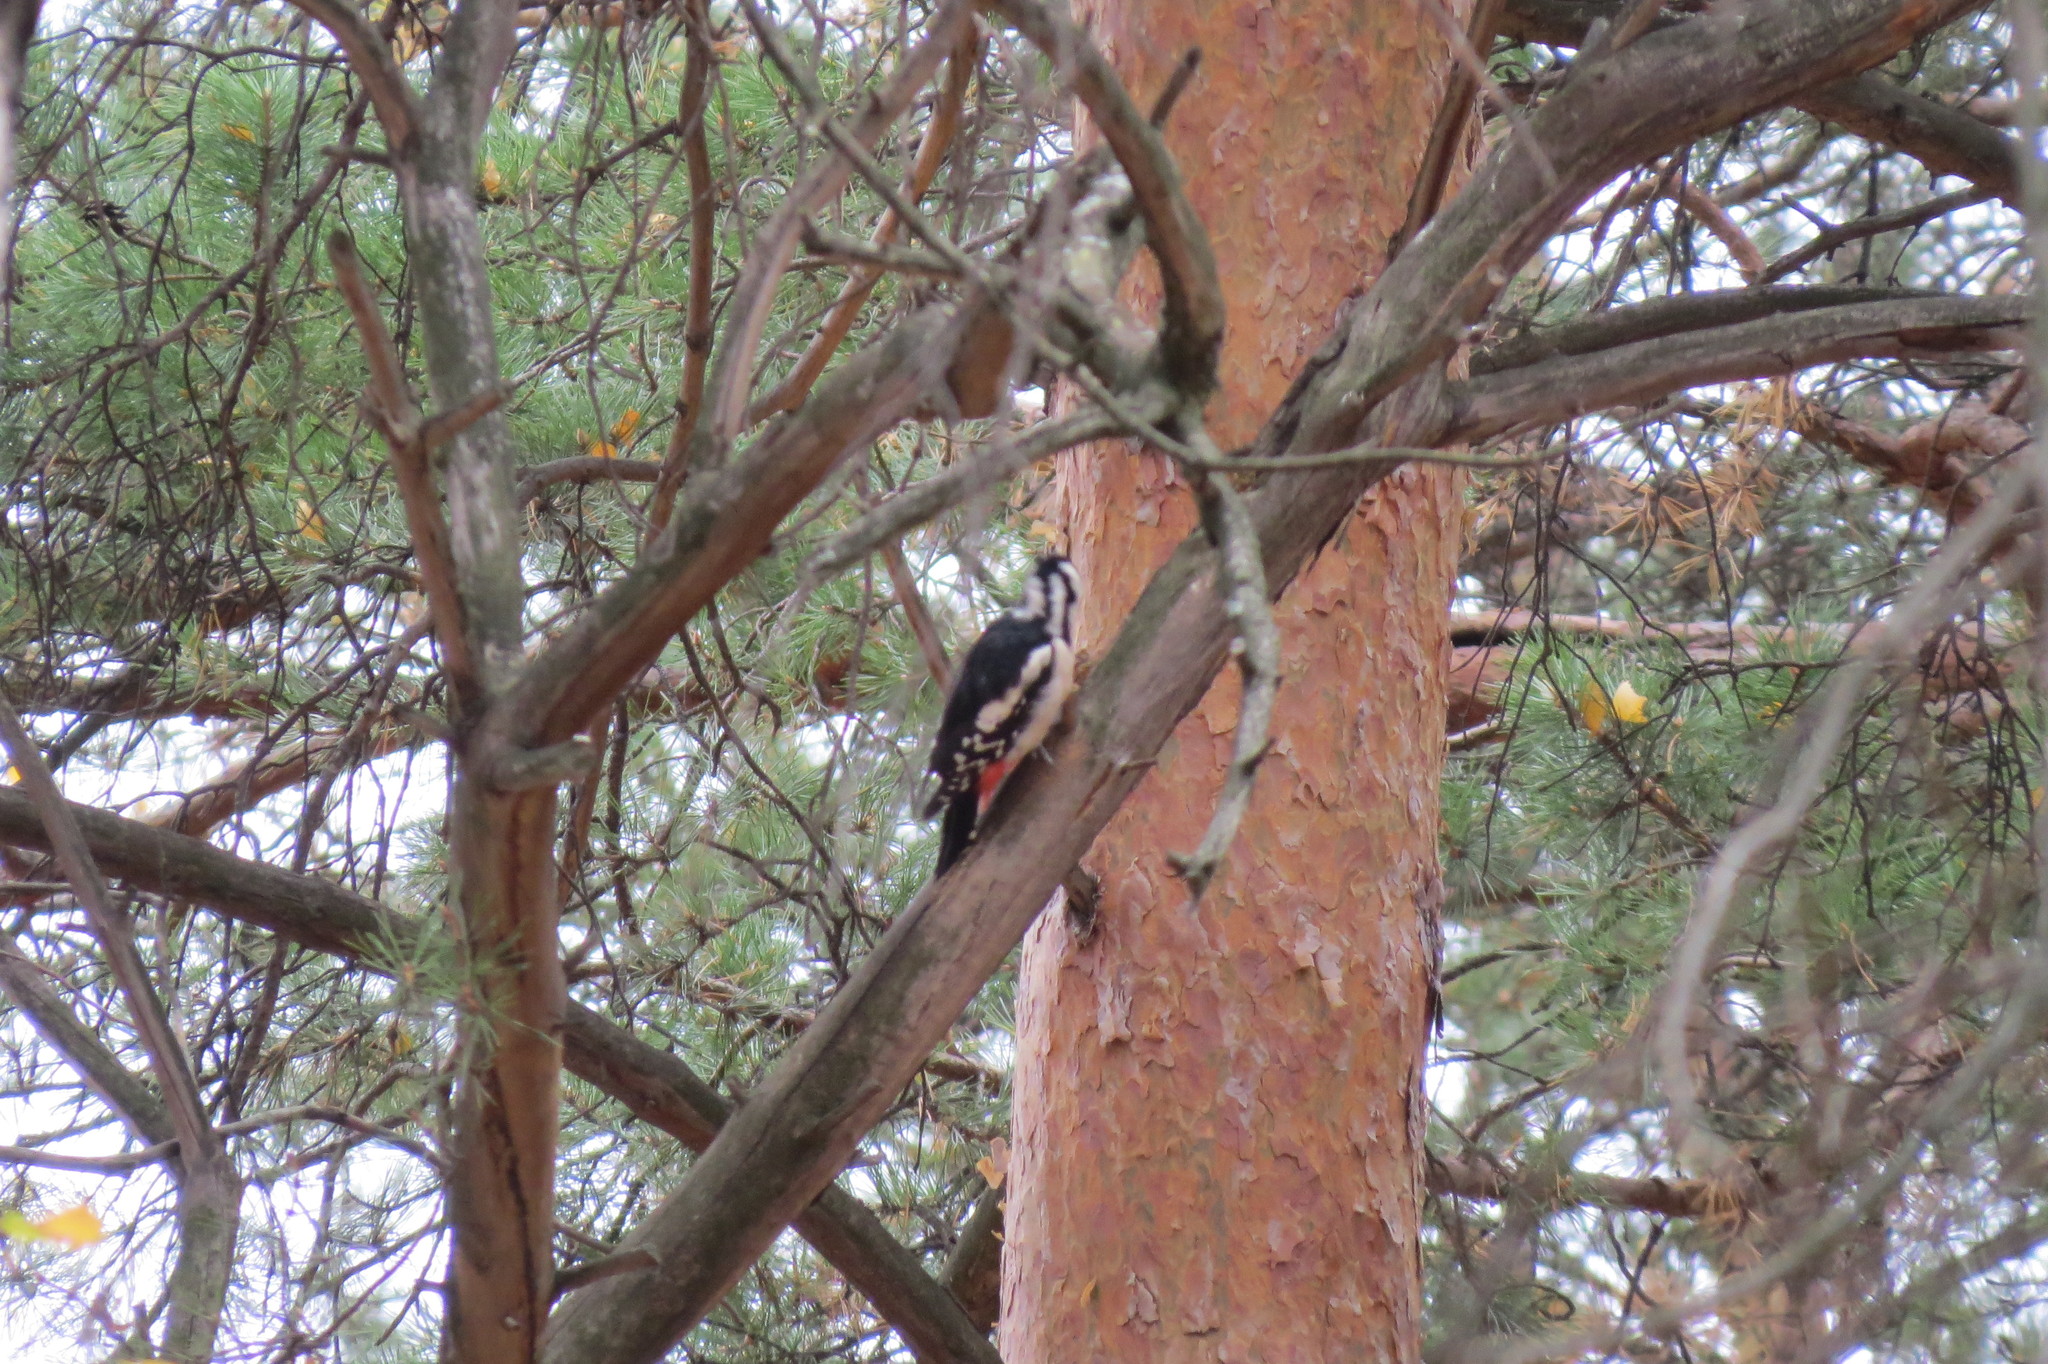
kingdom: Animalia
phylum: Chordata
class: Aves
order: Piciformes
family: Picidae
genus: Dendrocopos
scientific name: Dendrocopos major
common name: Great spotted woodpecker
